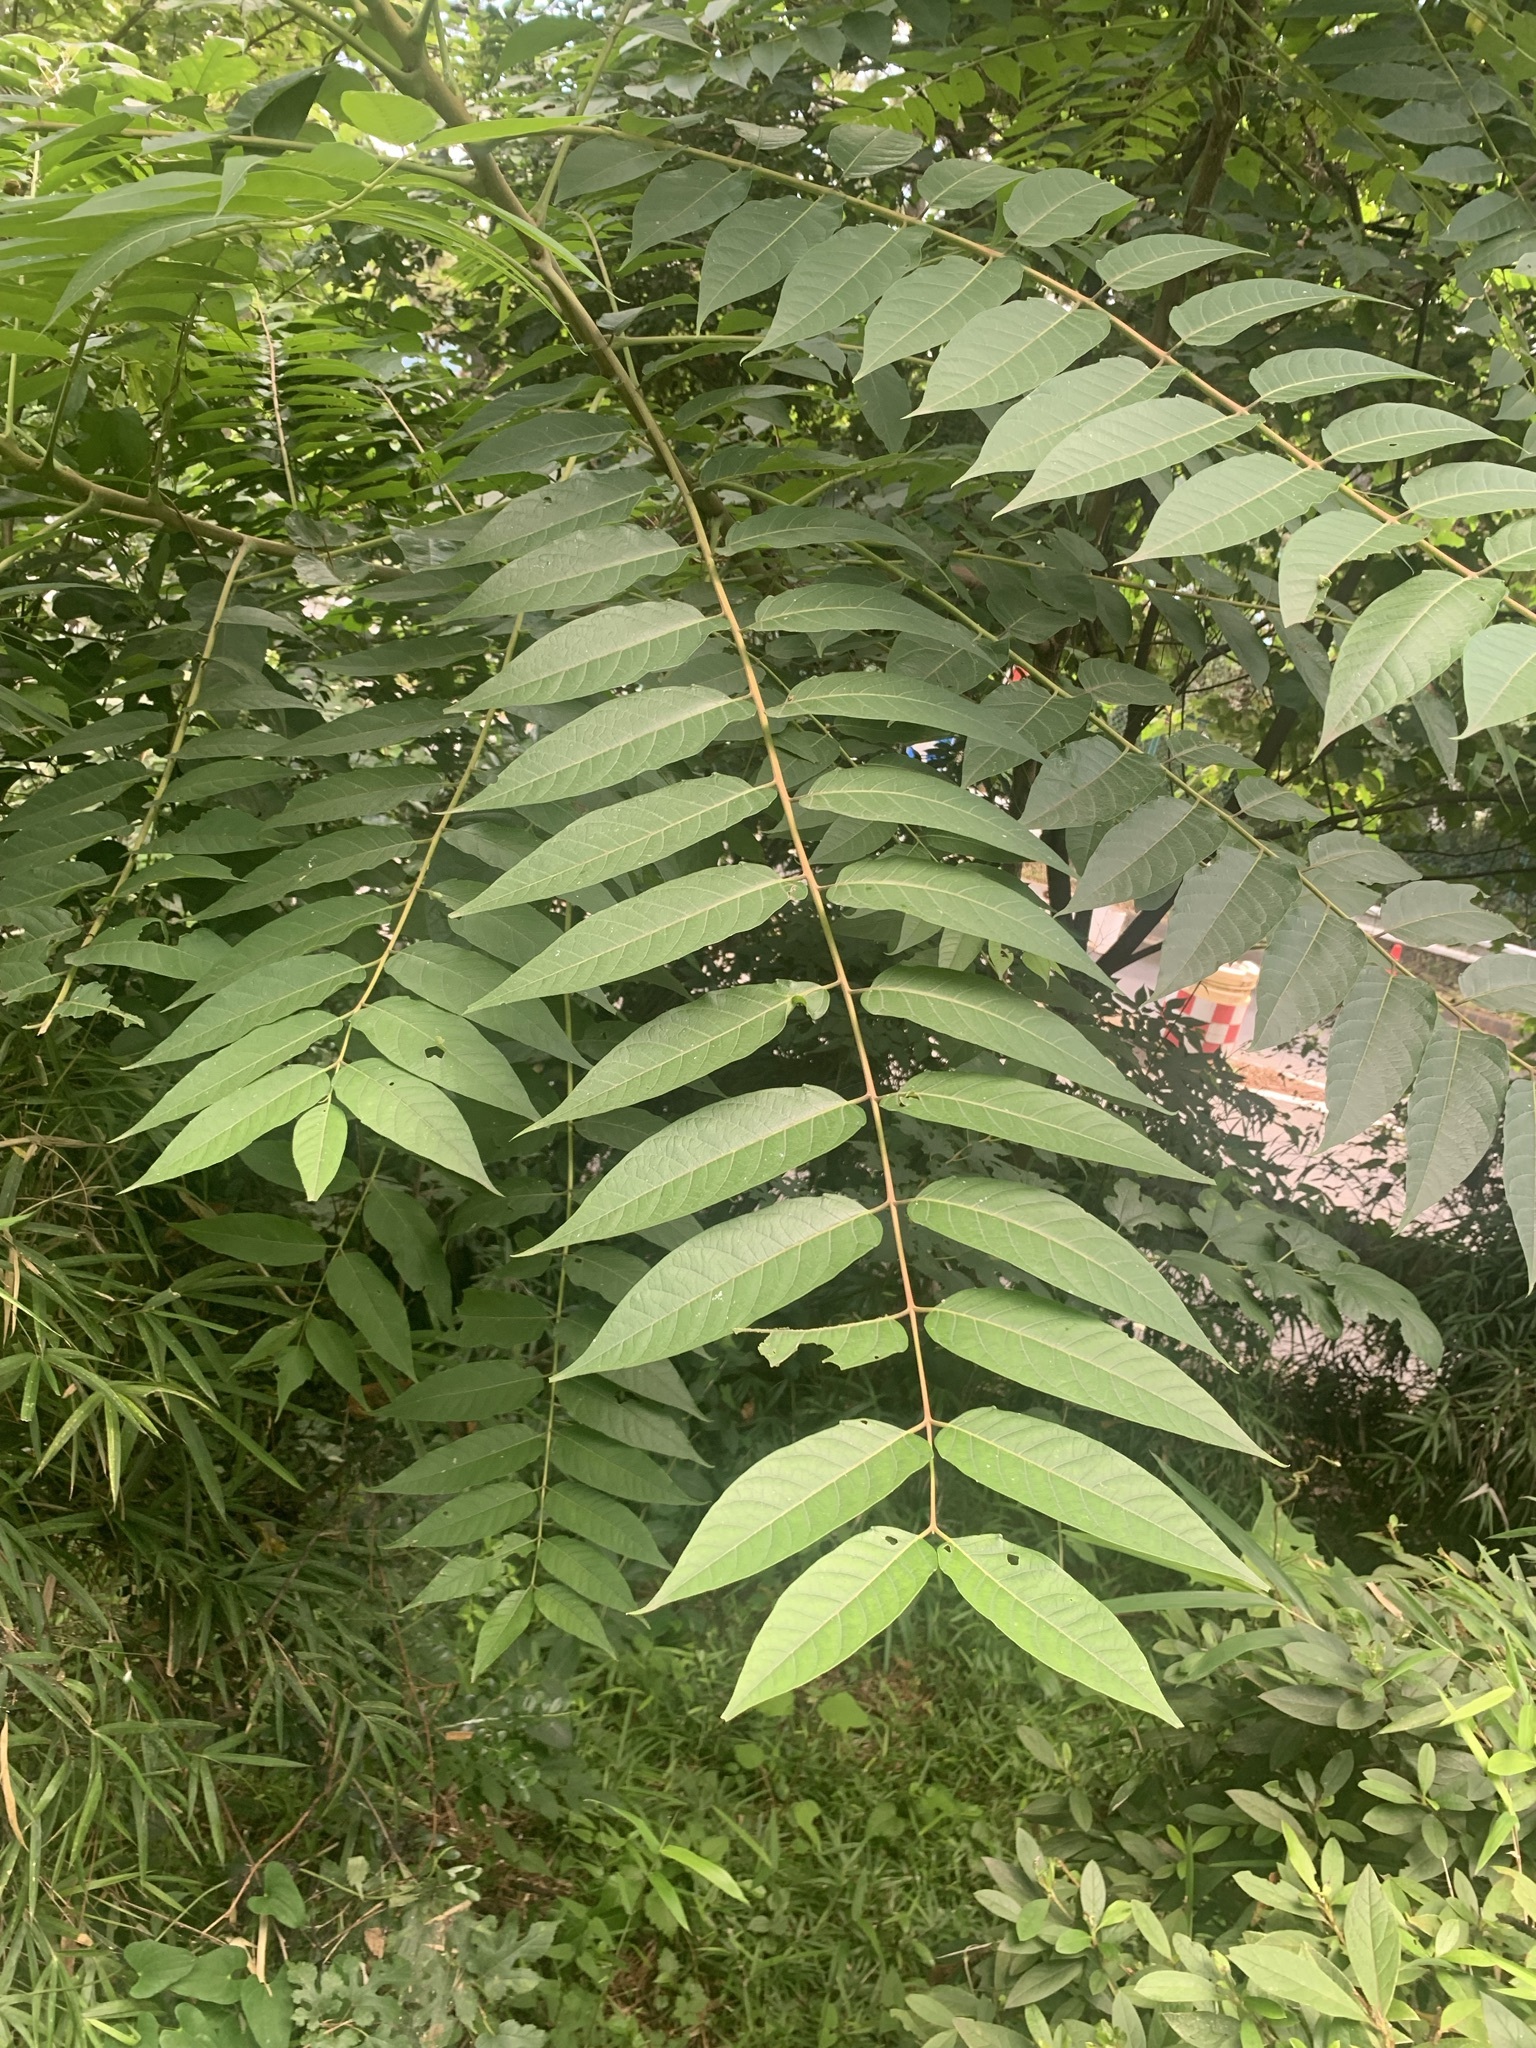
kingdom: Plantae
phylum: Tracheophyta
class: Magnoliopsida
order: Sapindales
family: Simaroubaceae
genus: Ailanthus
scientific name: Ailanthus altissima
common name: Tree-of-heaven
